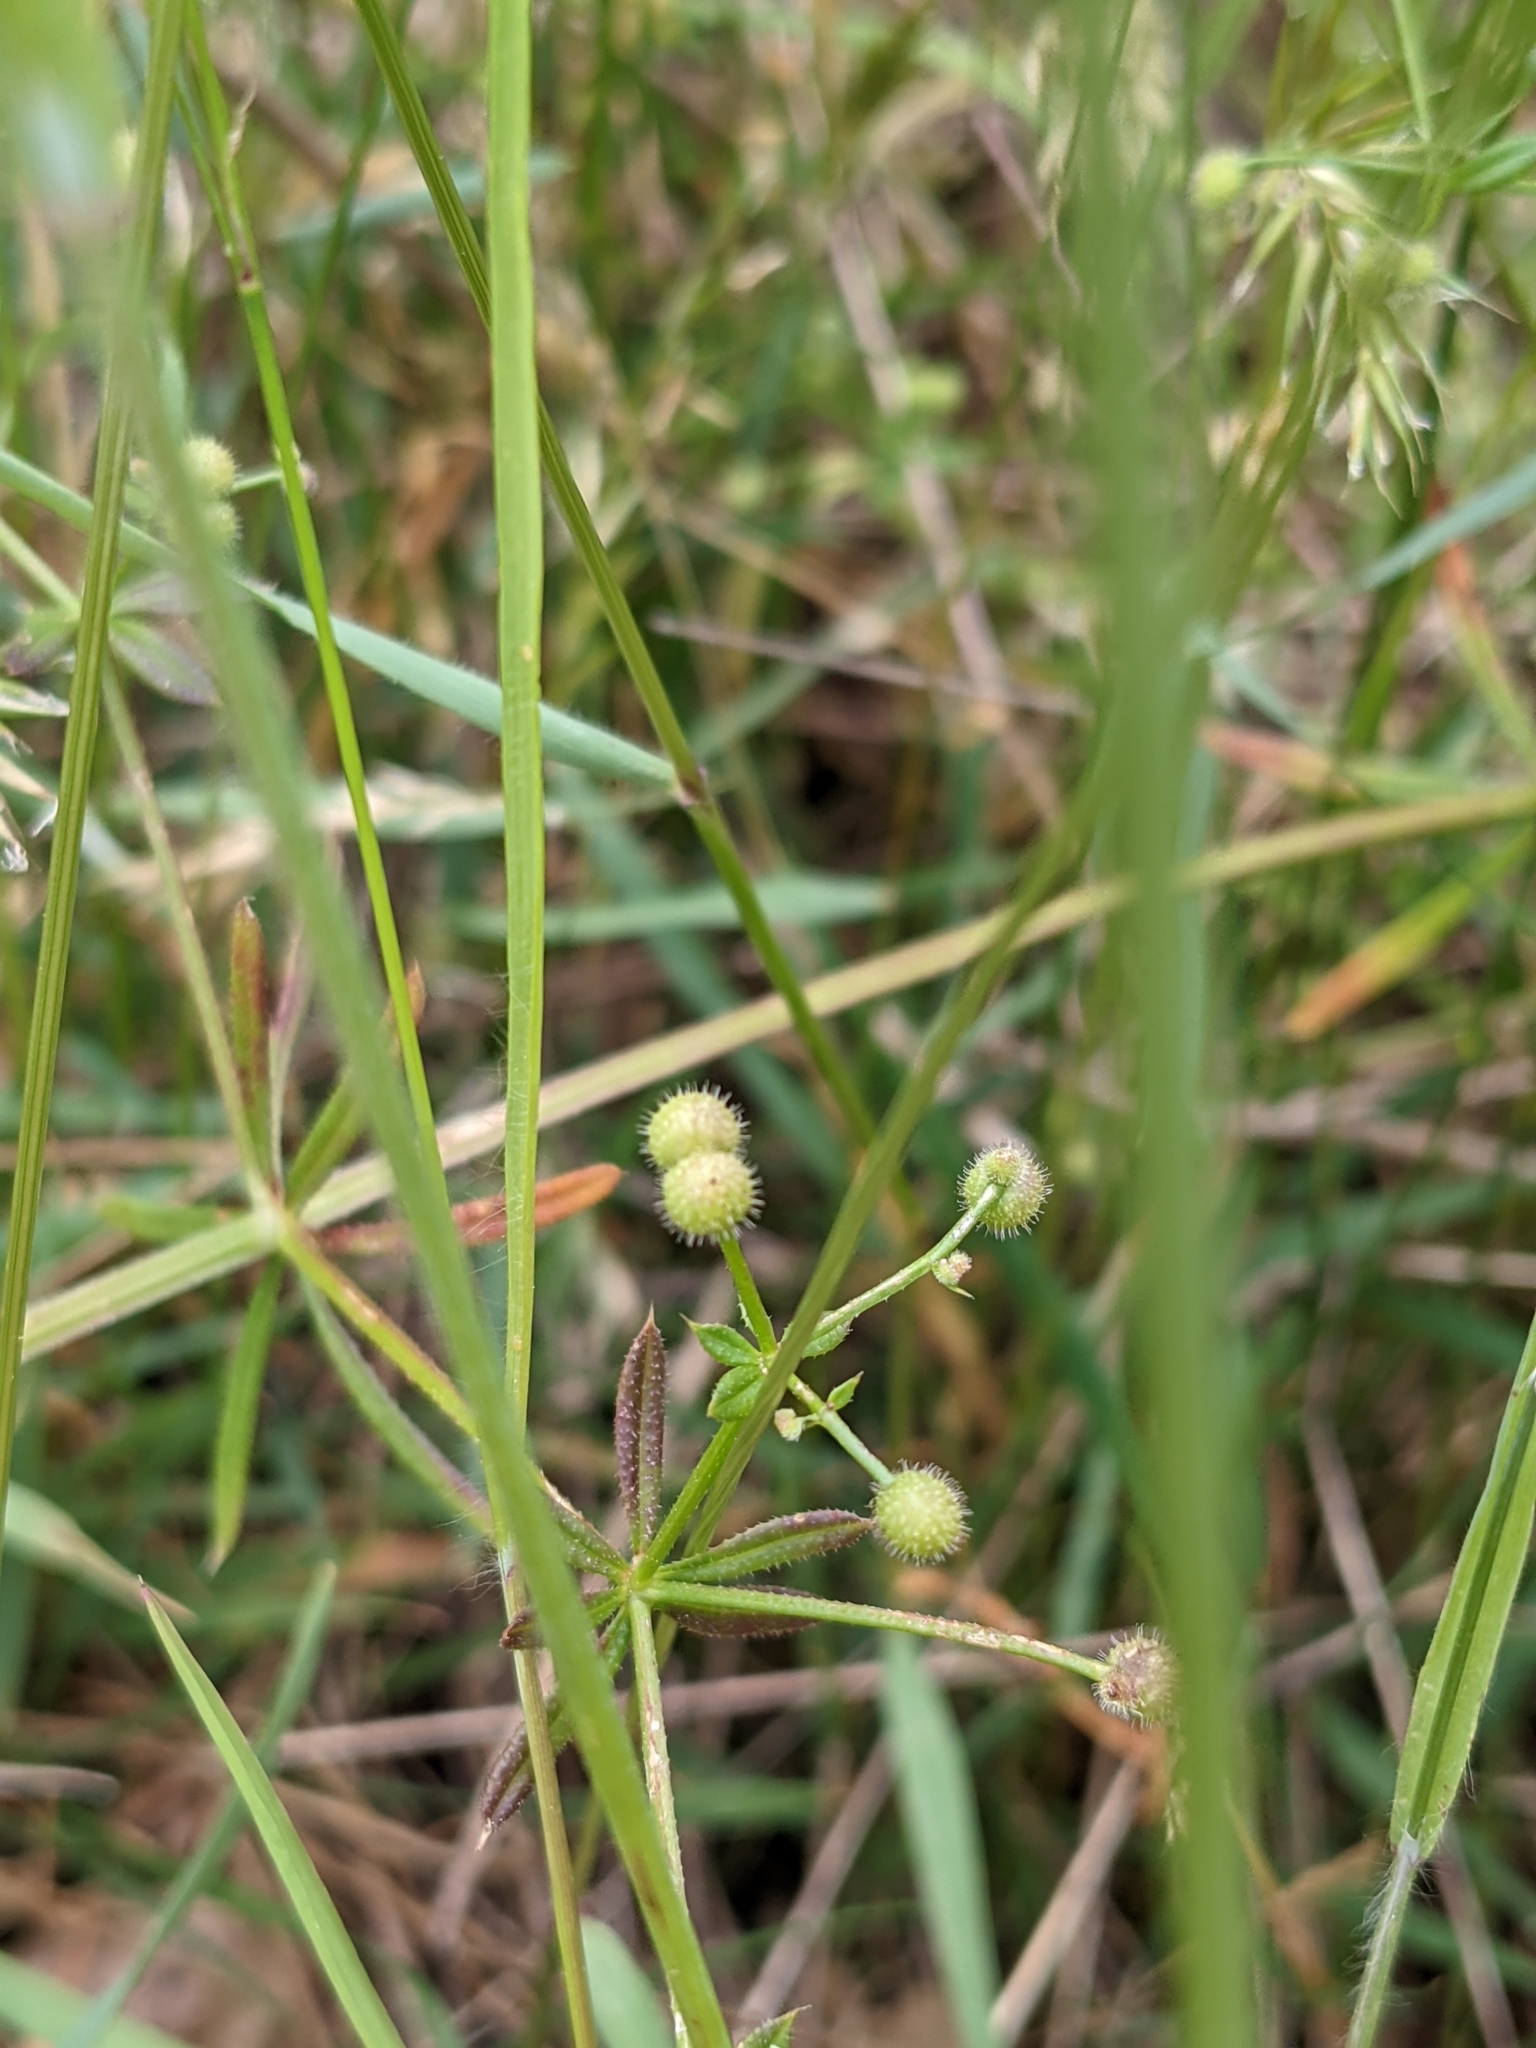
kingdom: Plantae
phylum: Tracheophyta
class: Magnoliopsida
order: Gentianales
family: Rubiaceae
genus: Galium
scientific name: Galium aparine
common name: Cleavers
